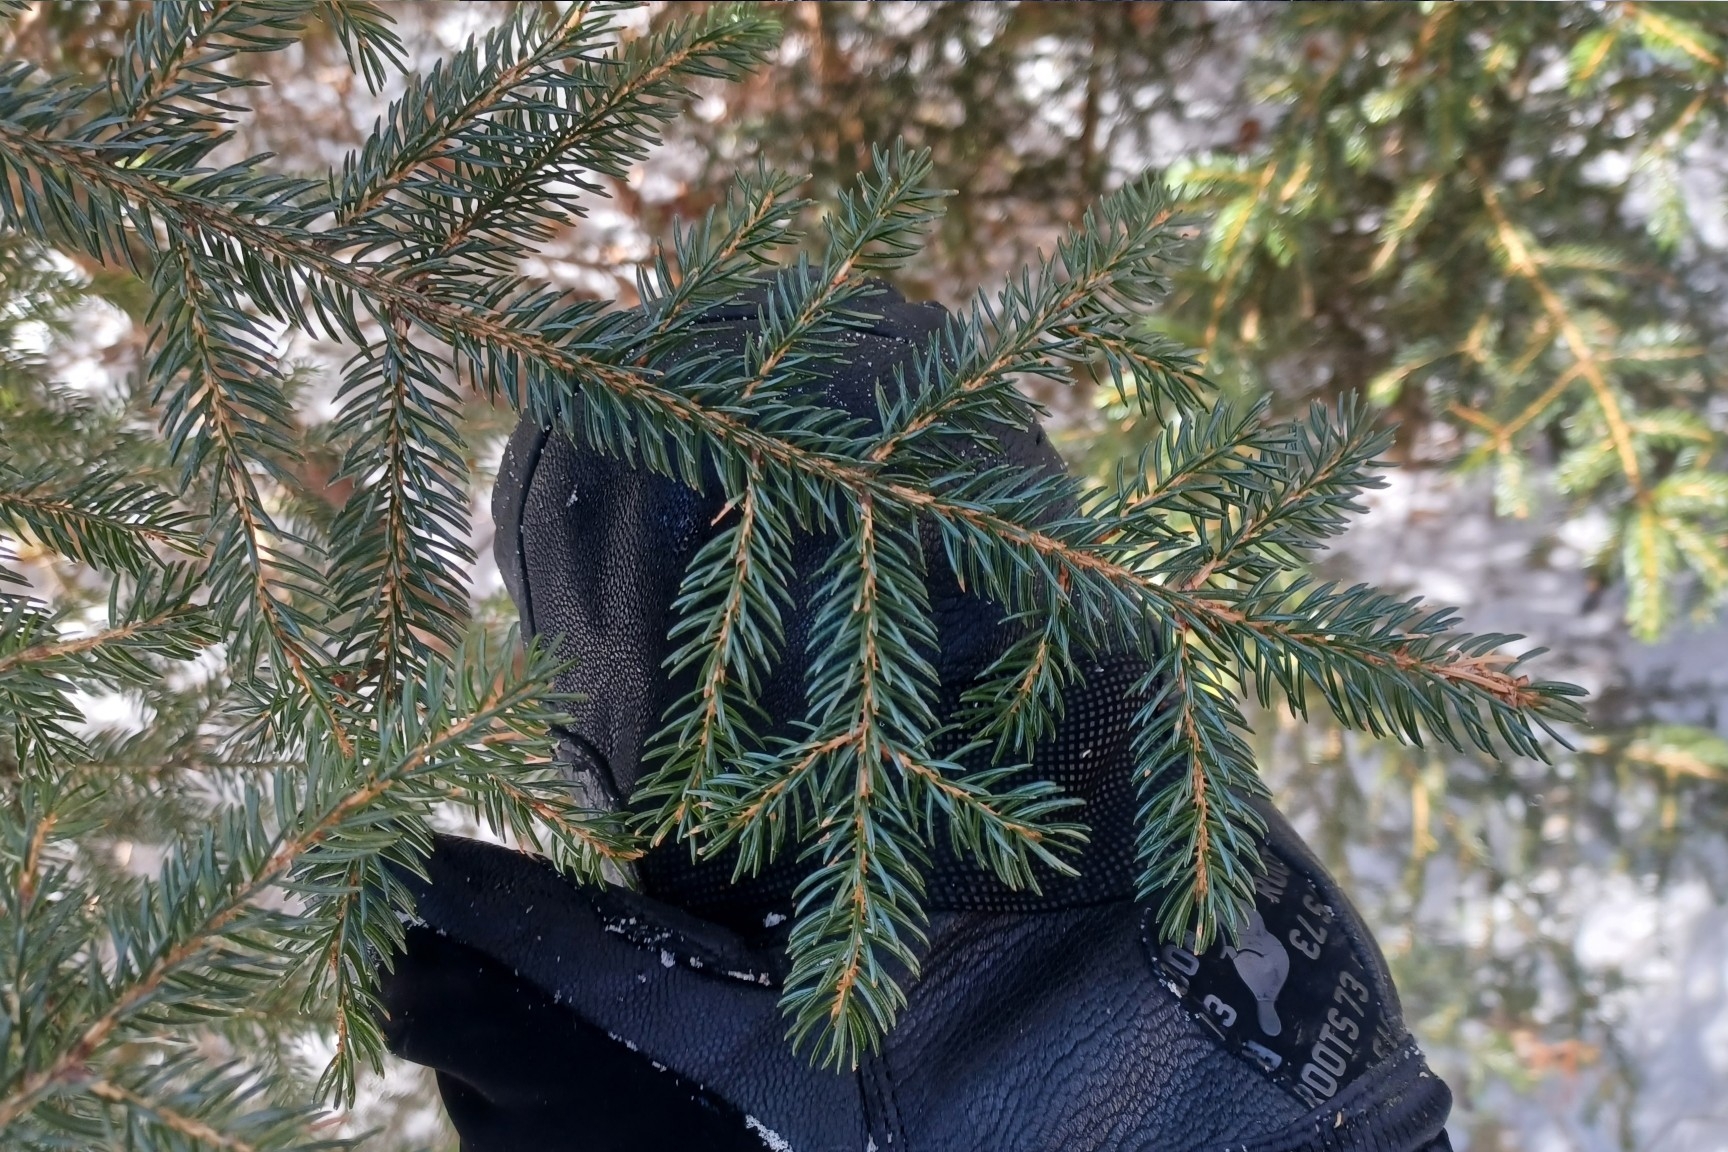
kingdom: Plantae
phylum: Tracheophyta
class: Pinopsida
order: Pinales
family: Pinaceae
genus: Picea
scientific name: Picea rubens
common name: Red spruce
